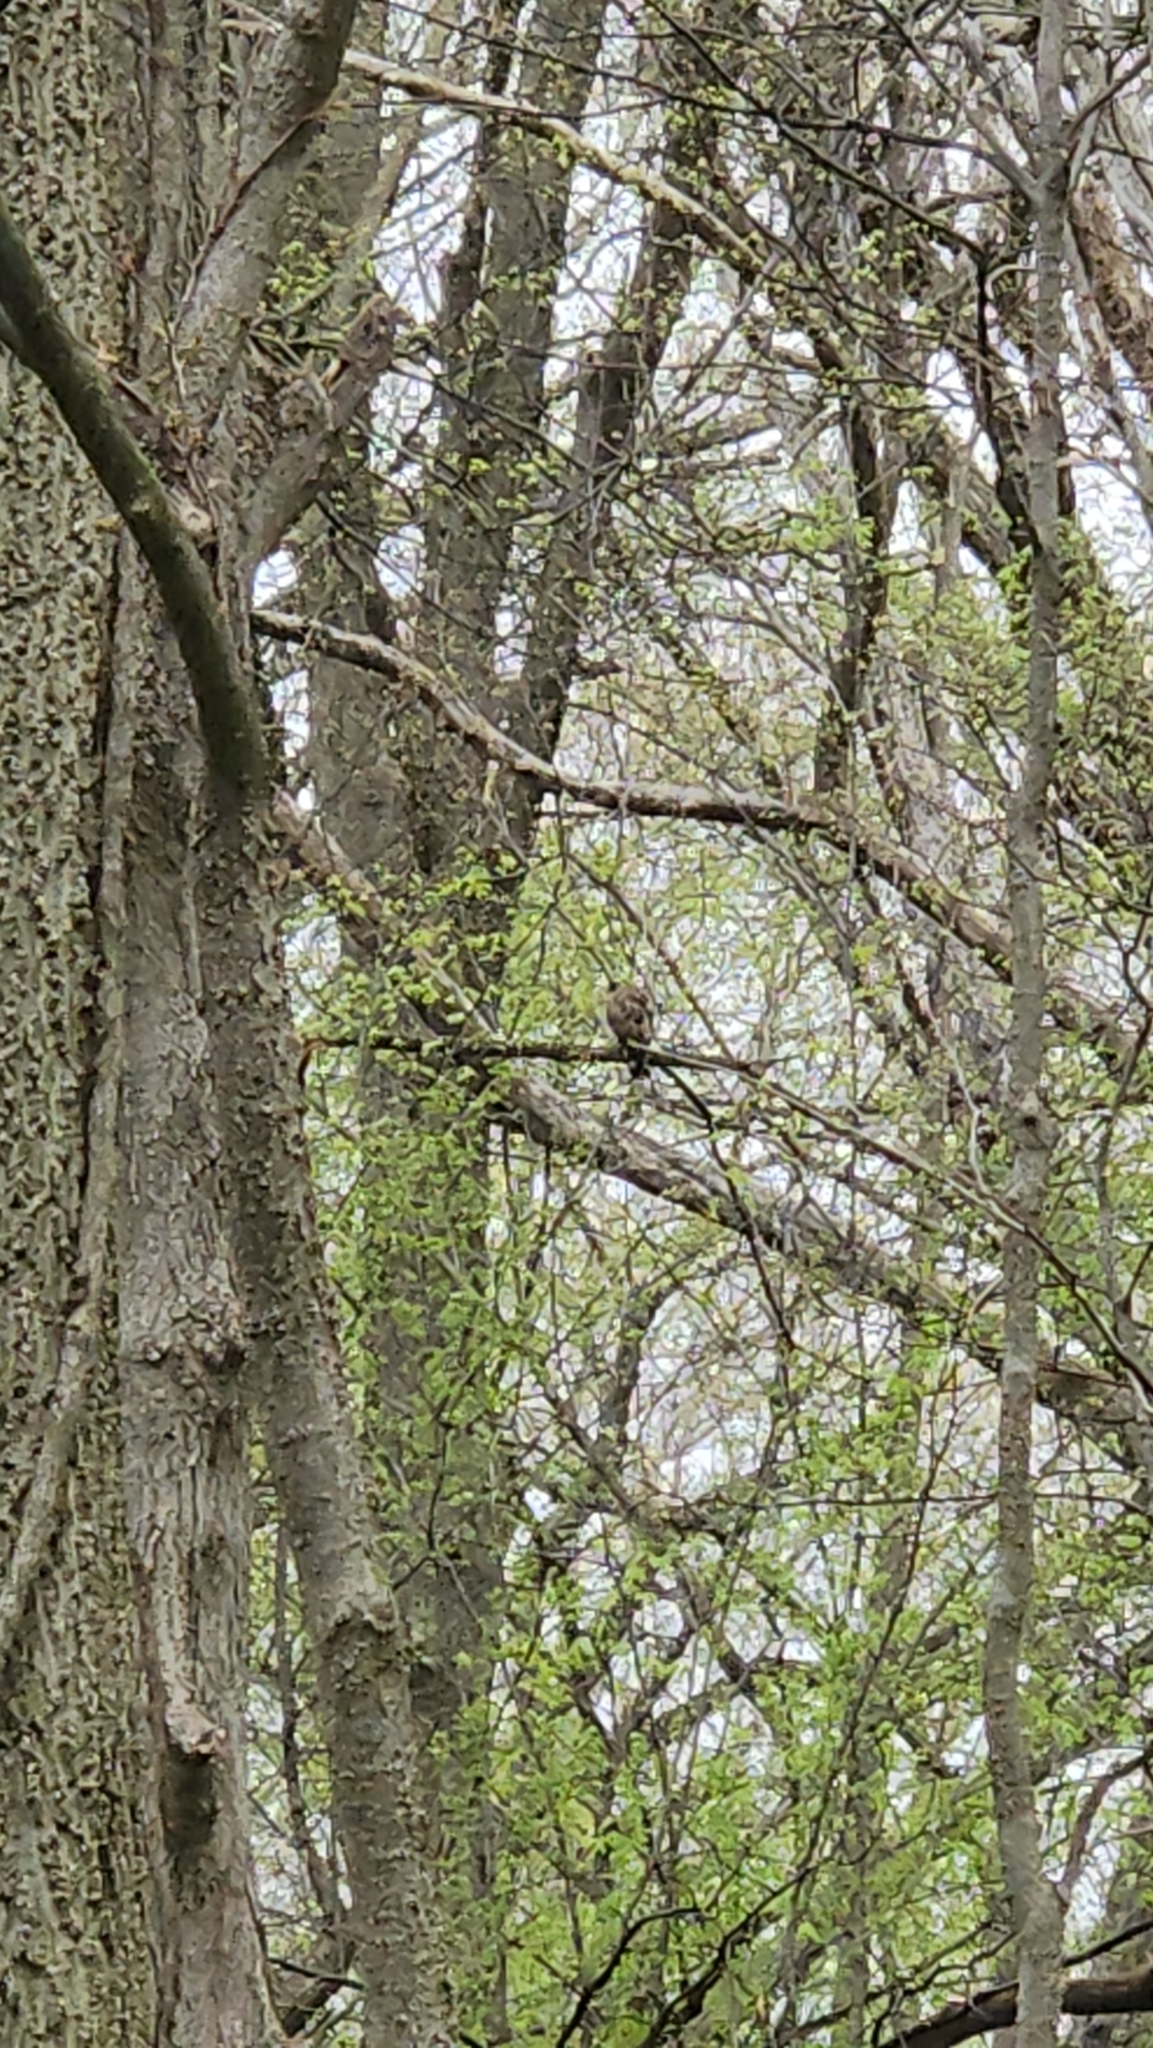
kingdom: Animalia
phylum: Chordata
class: Aves
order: Accipitriformes
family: Accipitridae
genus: Buteo
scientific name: Buteo platypterus
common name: Broad-winged hawk
